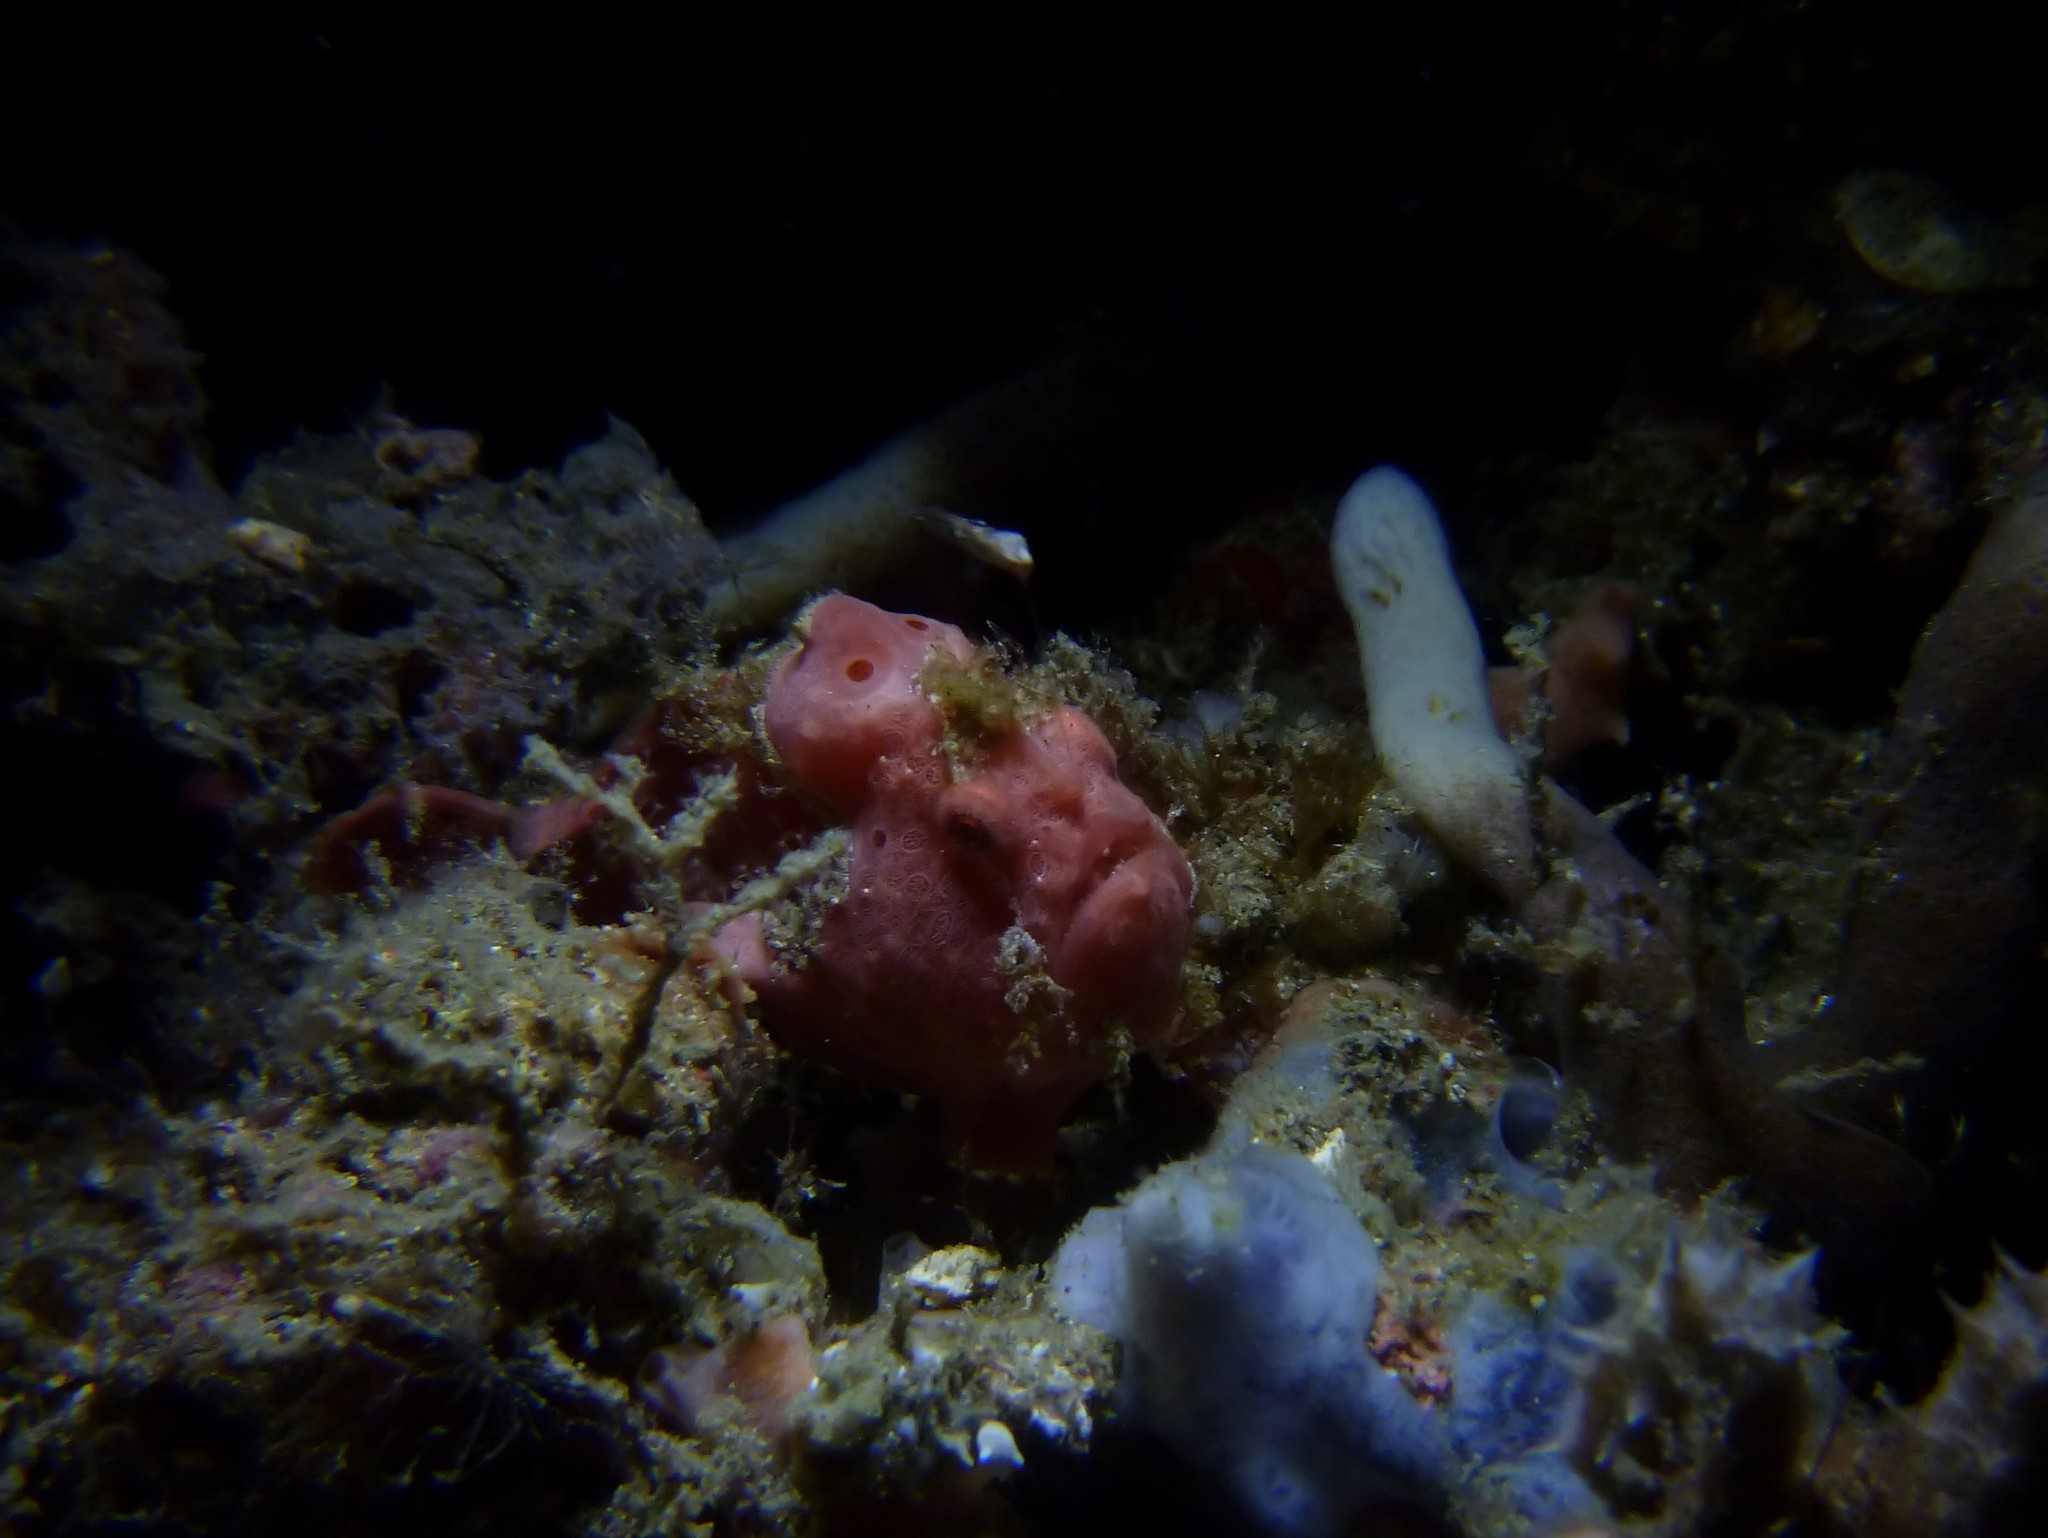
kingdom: Animalia
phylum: Chordata
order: Lophiiformes
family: Antennariidae
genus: Antennarius
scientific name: Antennarius pictus
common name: Painted frogfish
